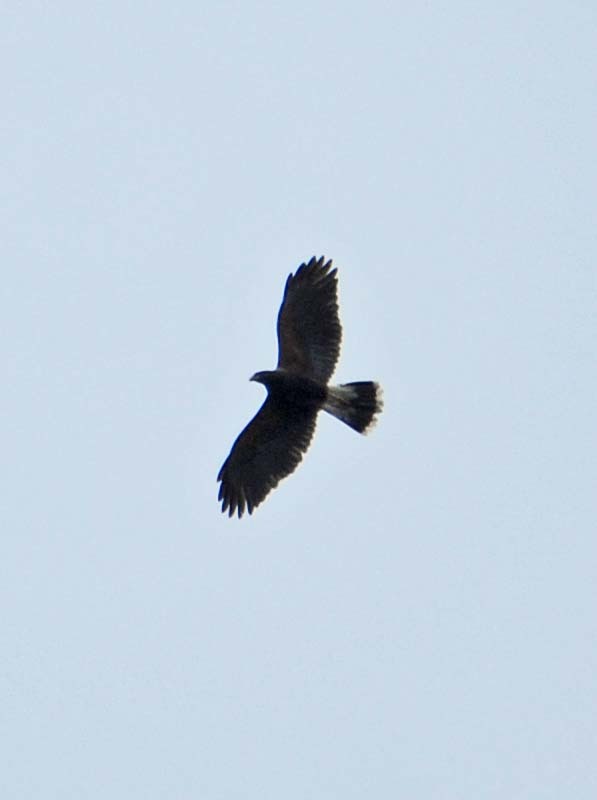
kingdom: Animalia
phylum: Chordata
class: Aves
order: Accipitriformes
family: Accipitridae
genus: Parabuteo
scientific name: Parabuteo unicinctus
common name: Harris's hawk
